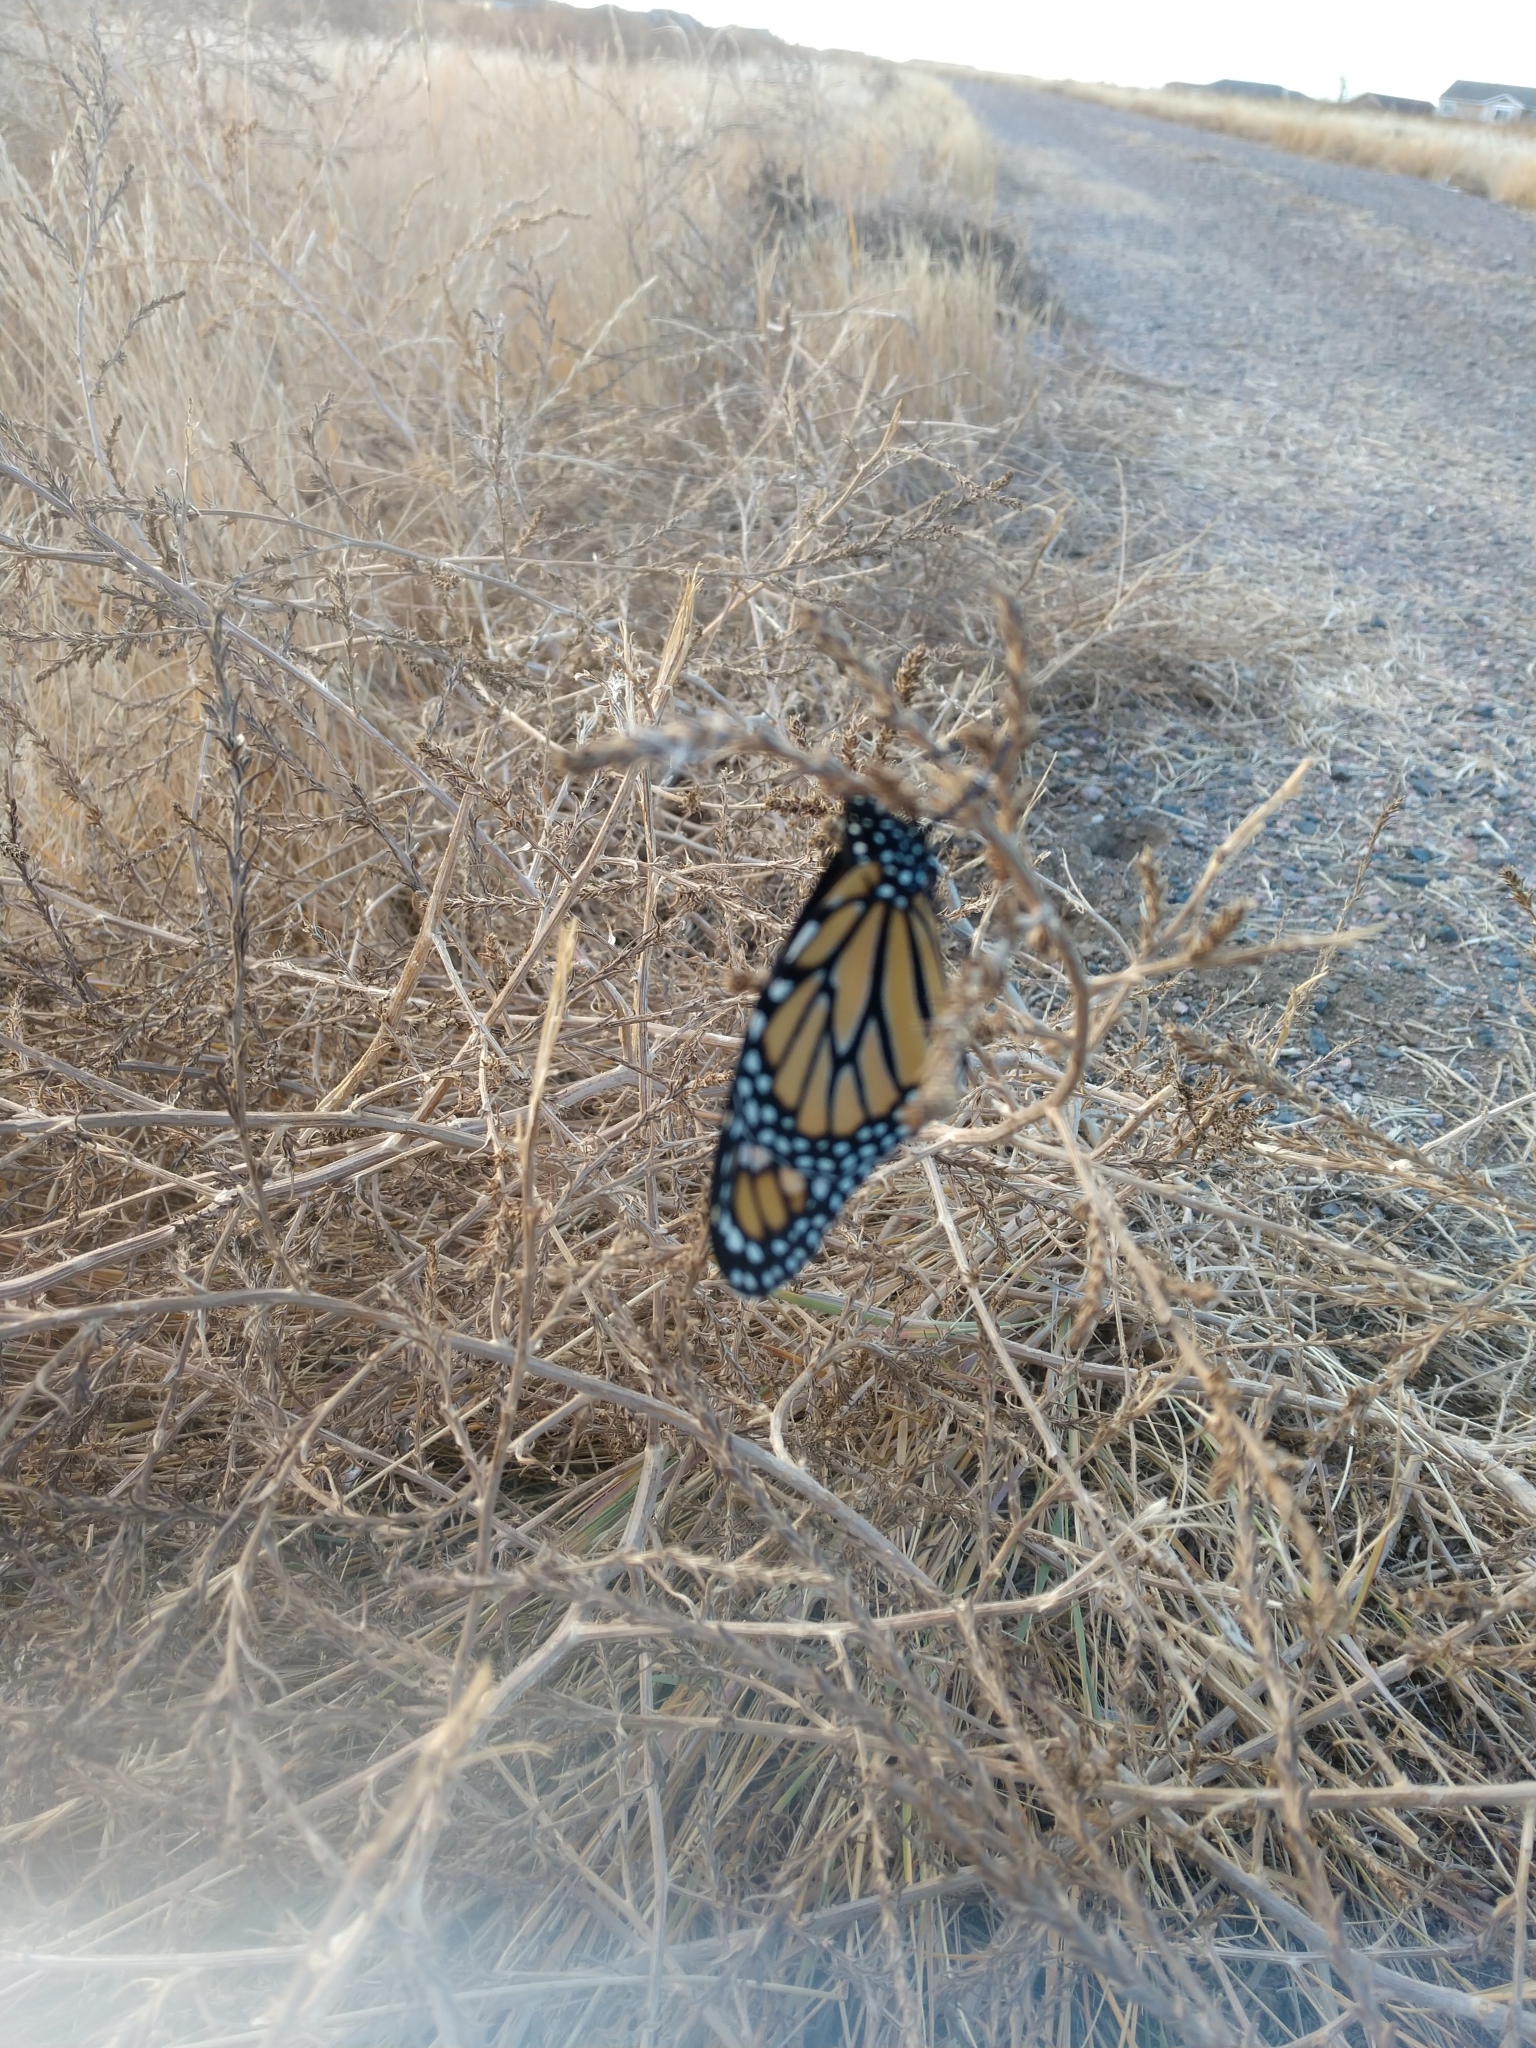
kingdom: Animalia
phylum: Arthropoda
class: Insecta
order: Lepidoptera
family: Nymphalidae
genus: Danaus
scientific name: Danaus plexippus
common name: Monarch
